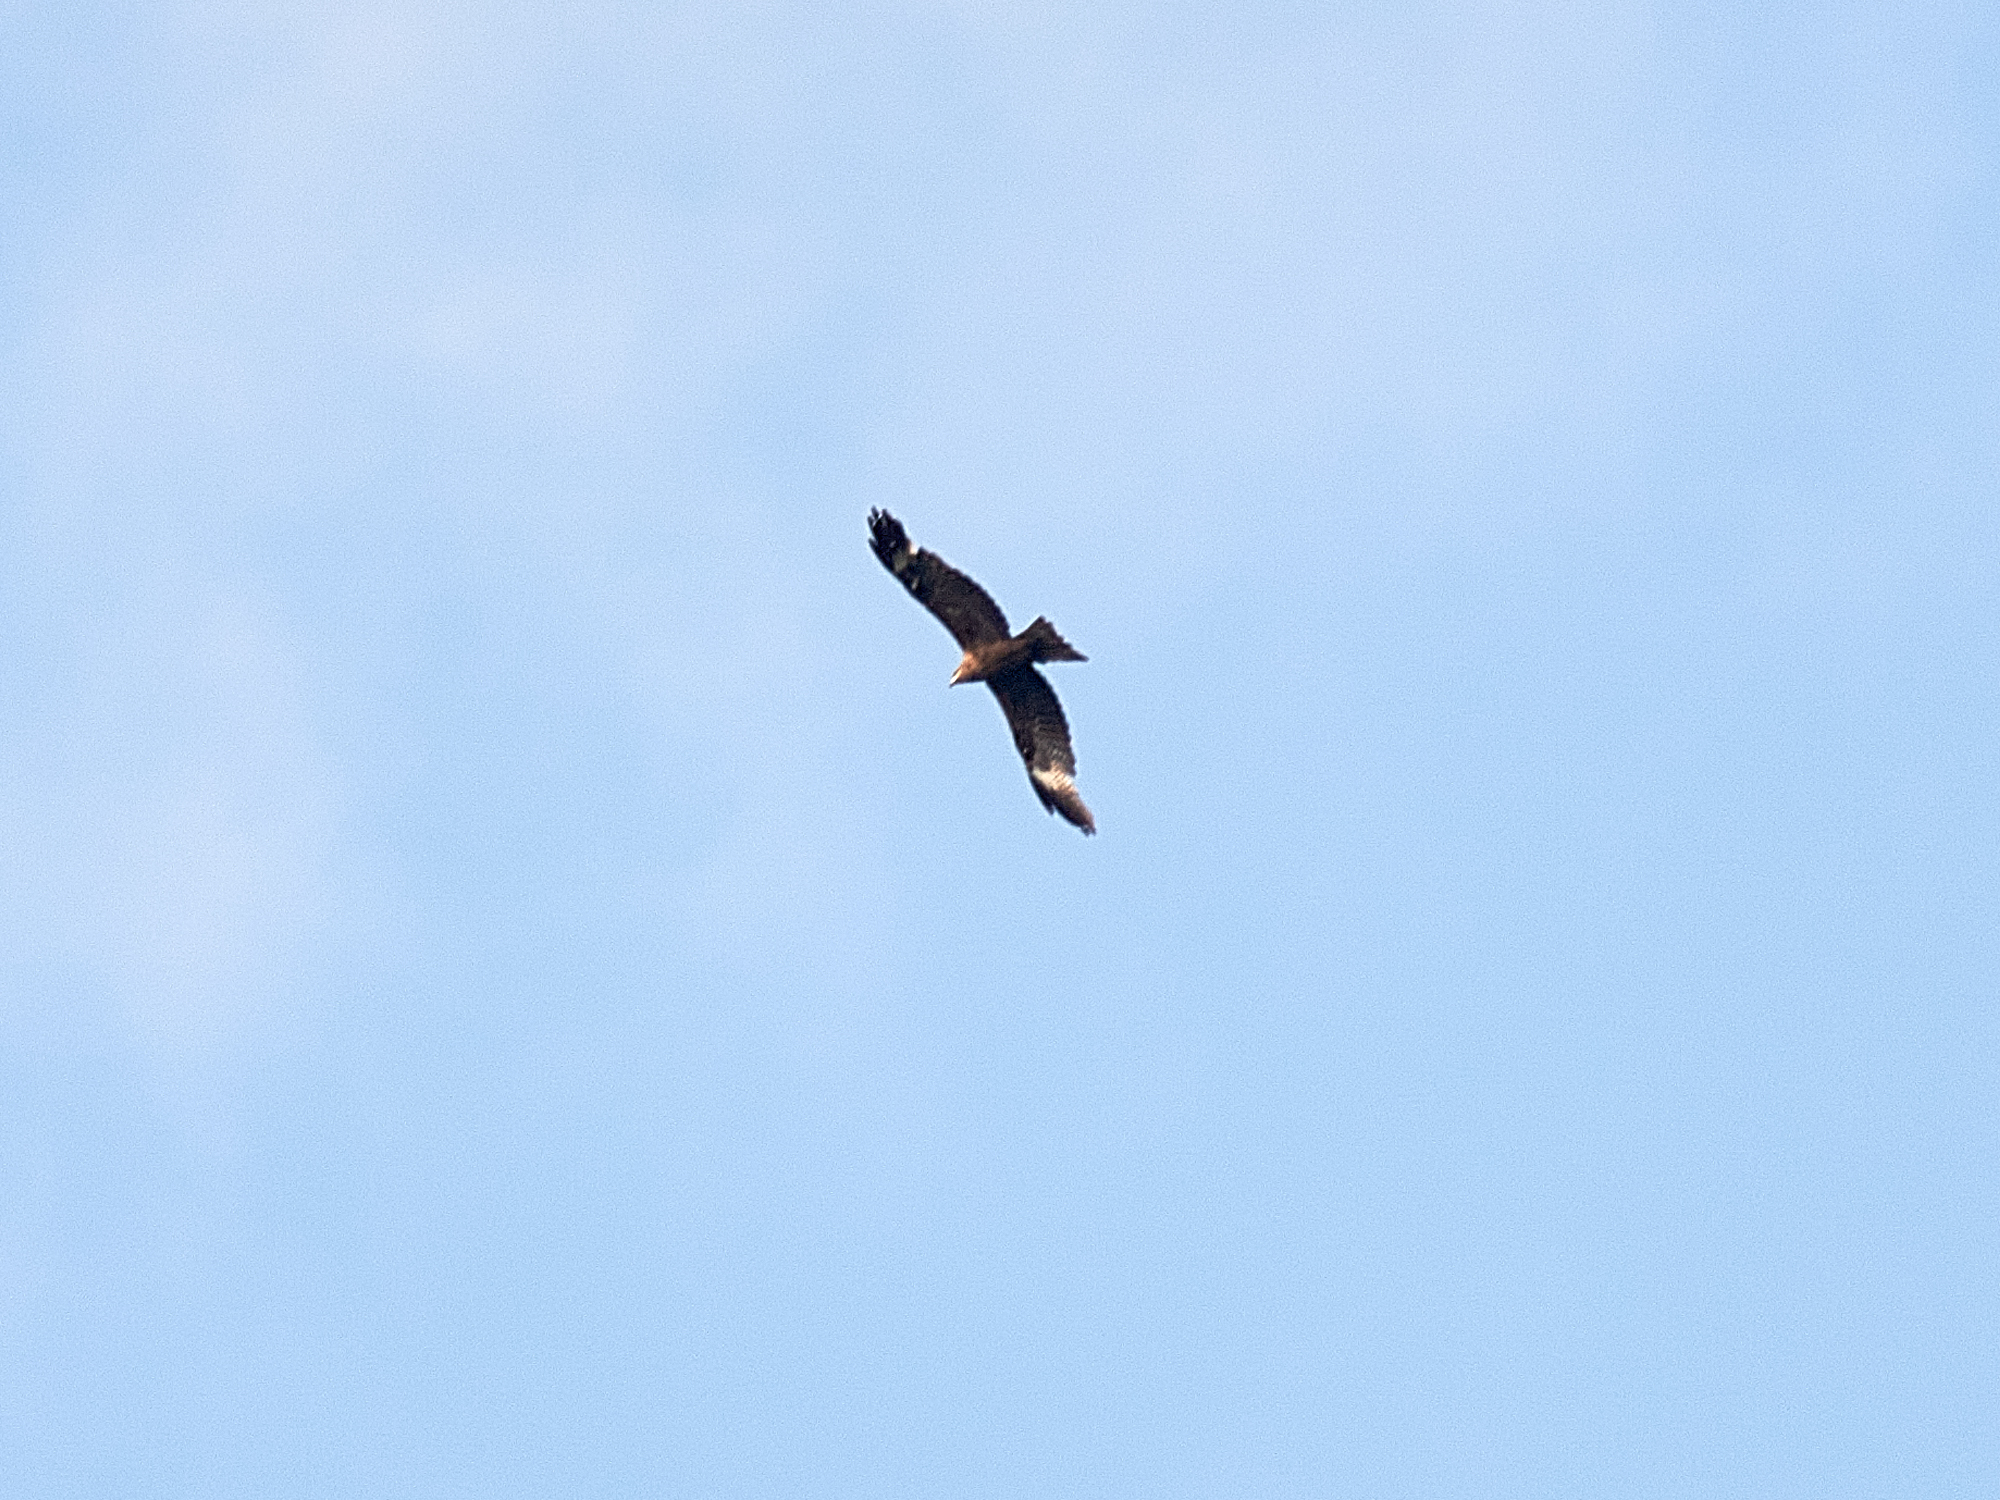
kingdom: Animalia
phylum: Chordata
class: Aves
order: Accipitriformes
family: Accipitridae
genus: Milvus
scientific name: Milvus migrans
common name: Black kite
